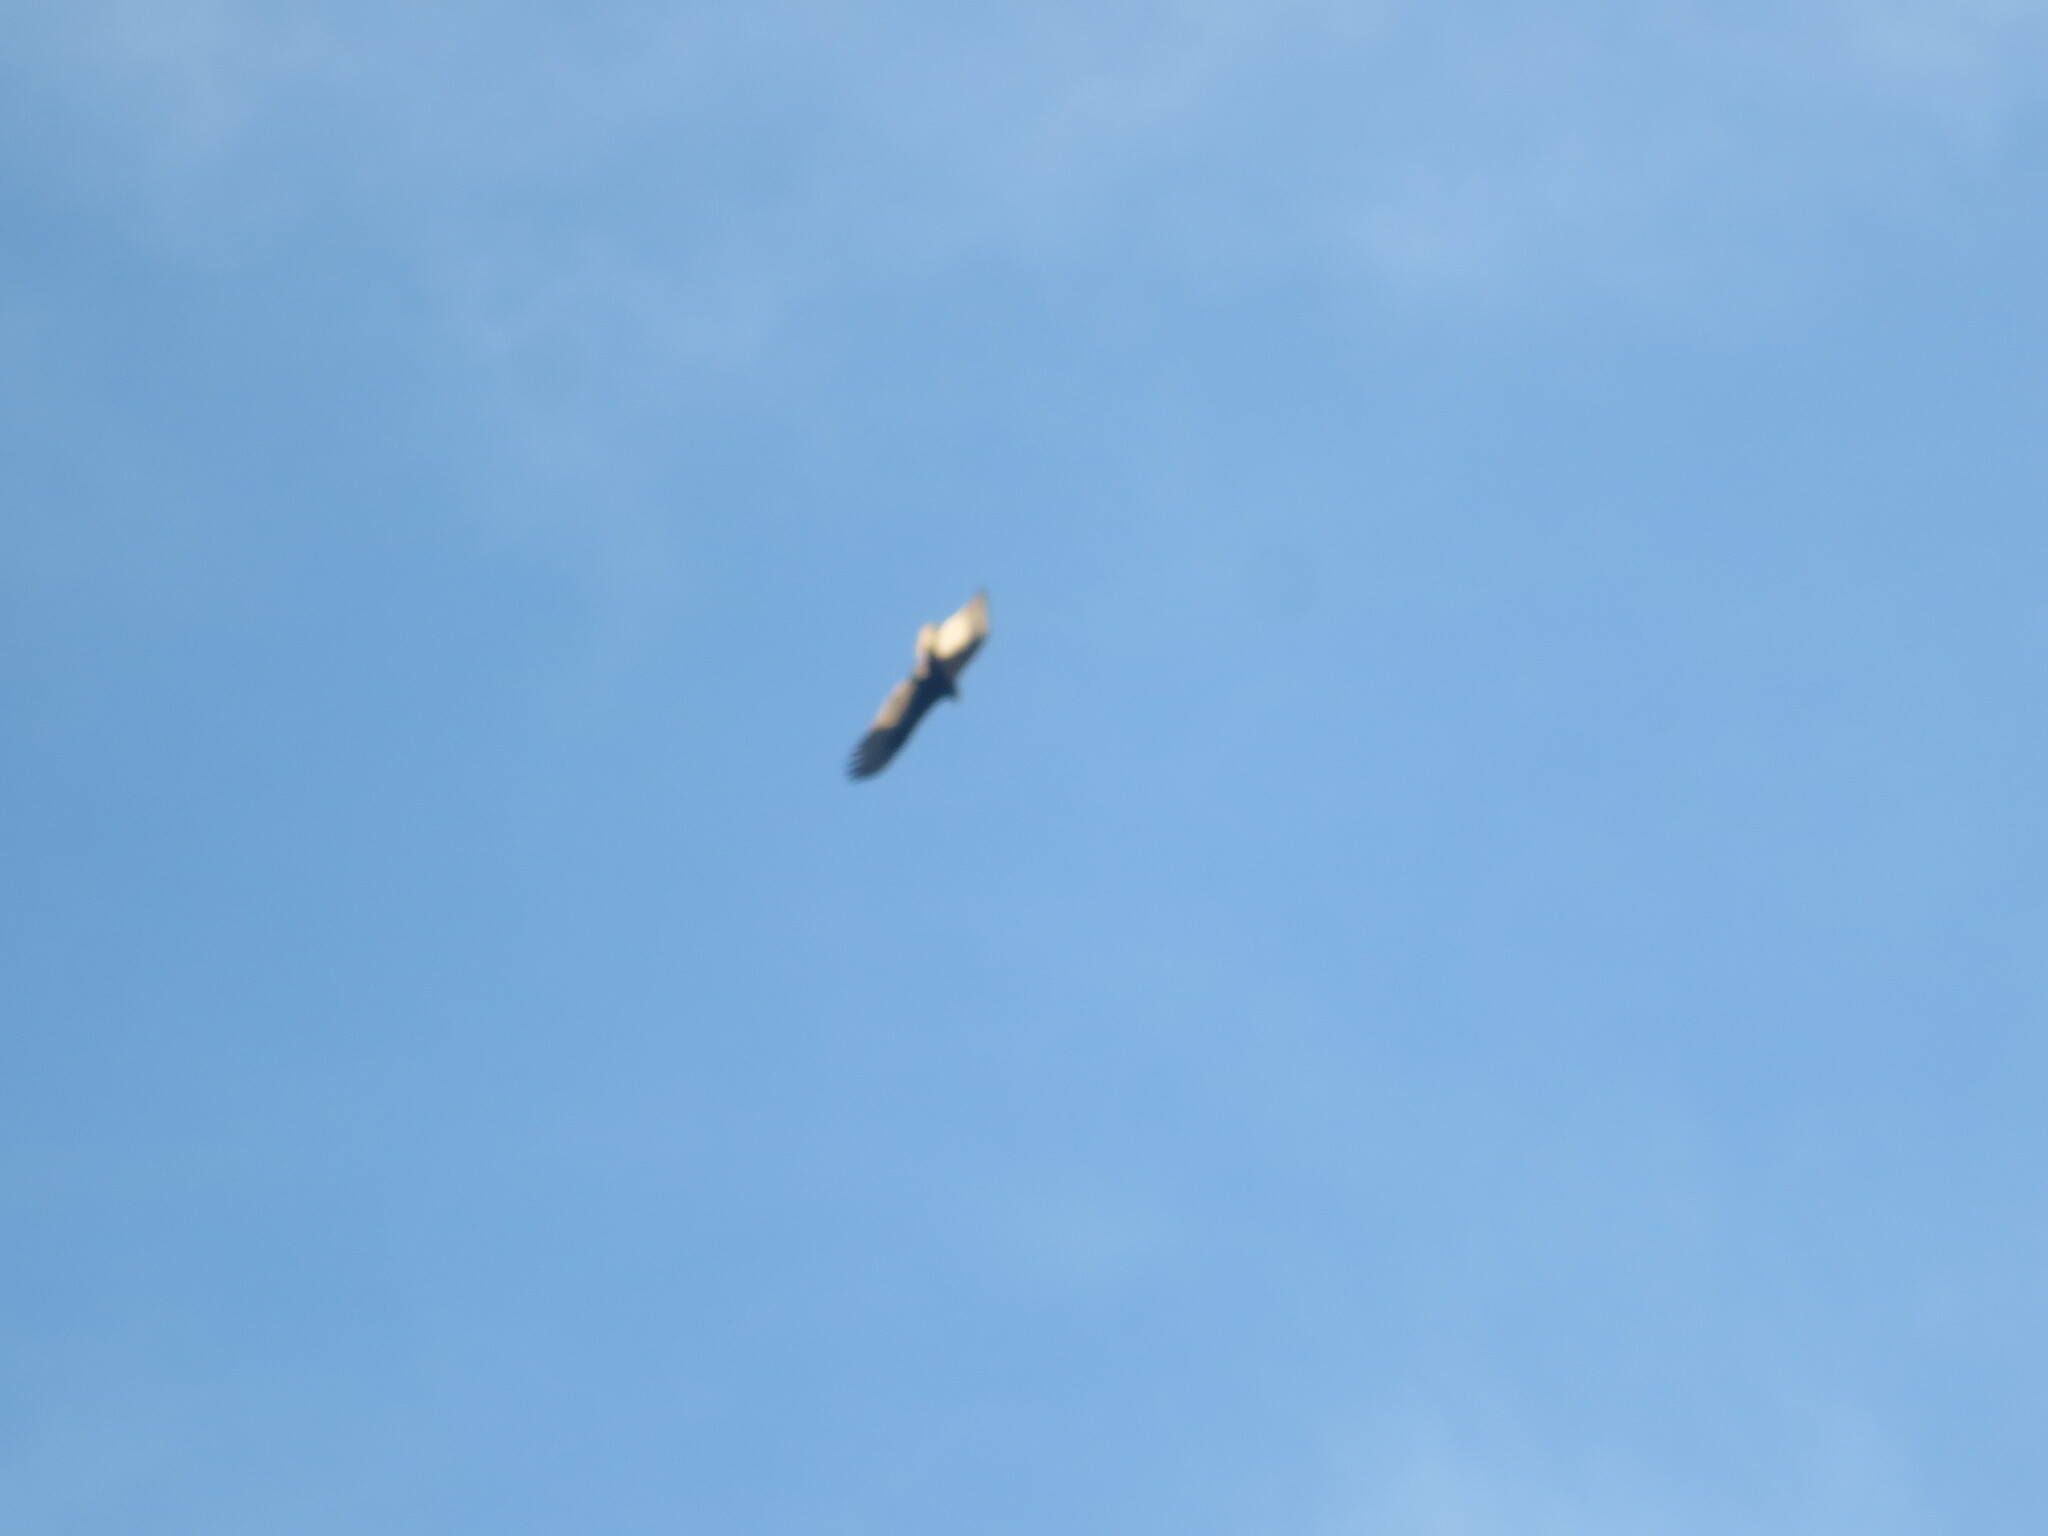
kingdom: Animalia
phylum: Chordata
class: Aves
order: Accipitriformes
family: Cathartidae
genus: Cathartes
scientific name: Cathartes aura
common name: Turkey vulture
